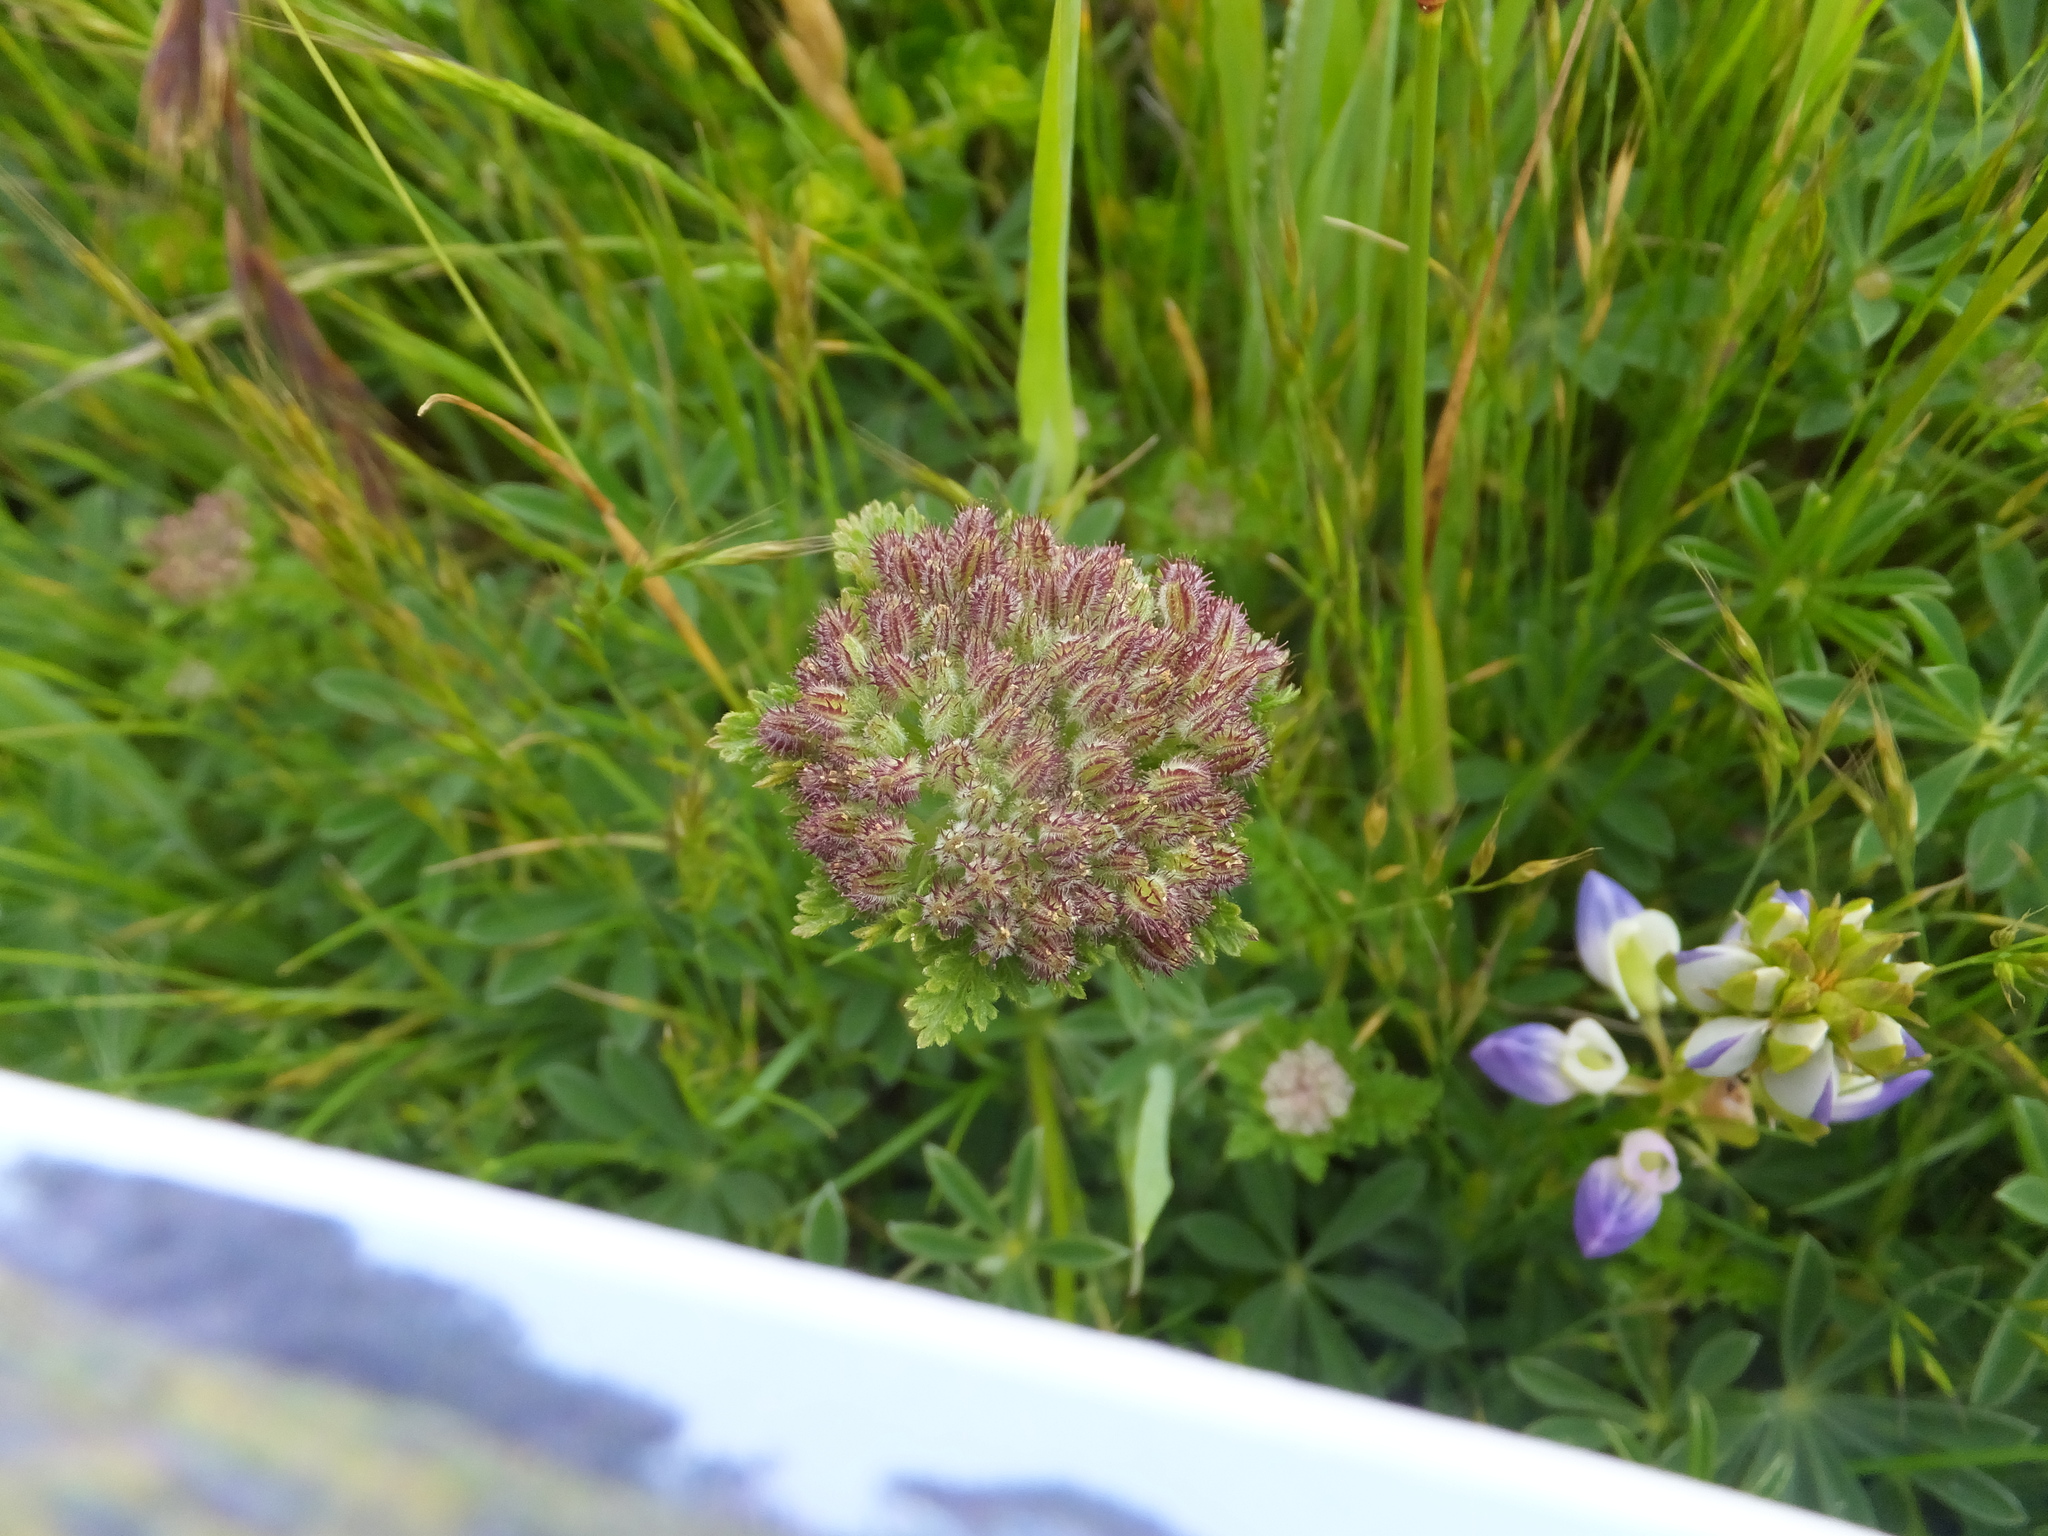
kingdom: Plantae
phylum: Tracheophyta
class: Magnoliopsida
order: Apiales
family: Apiaceae
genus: Daucus
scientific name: Daucus pusillus
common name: Southwest wild carrot
